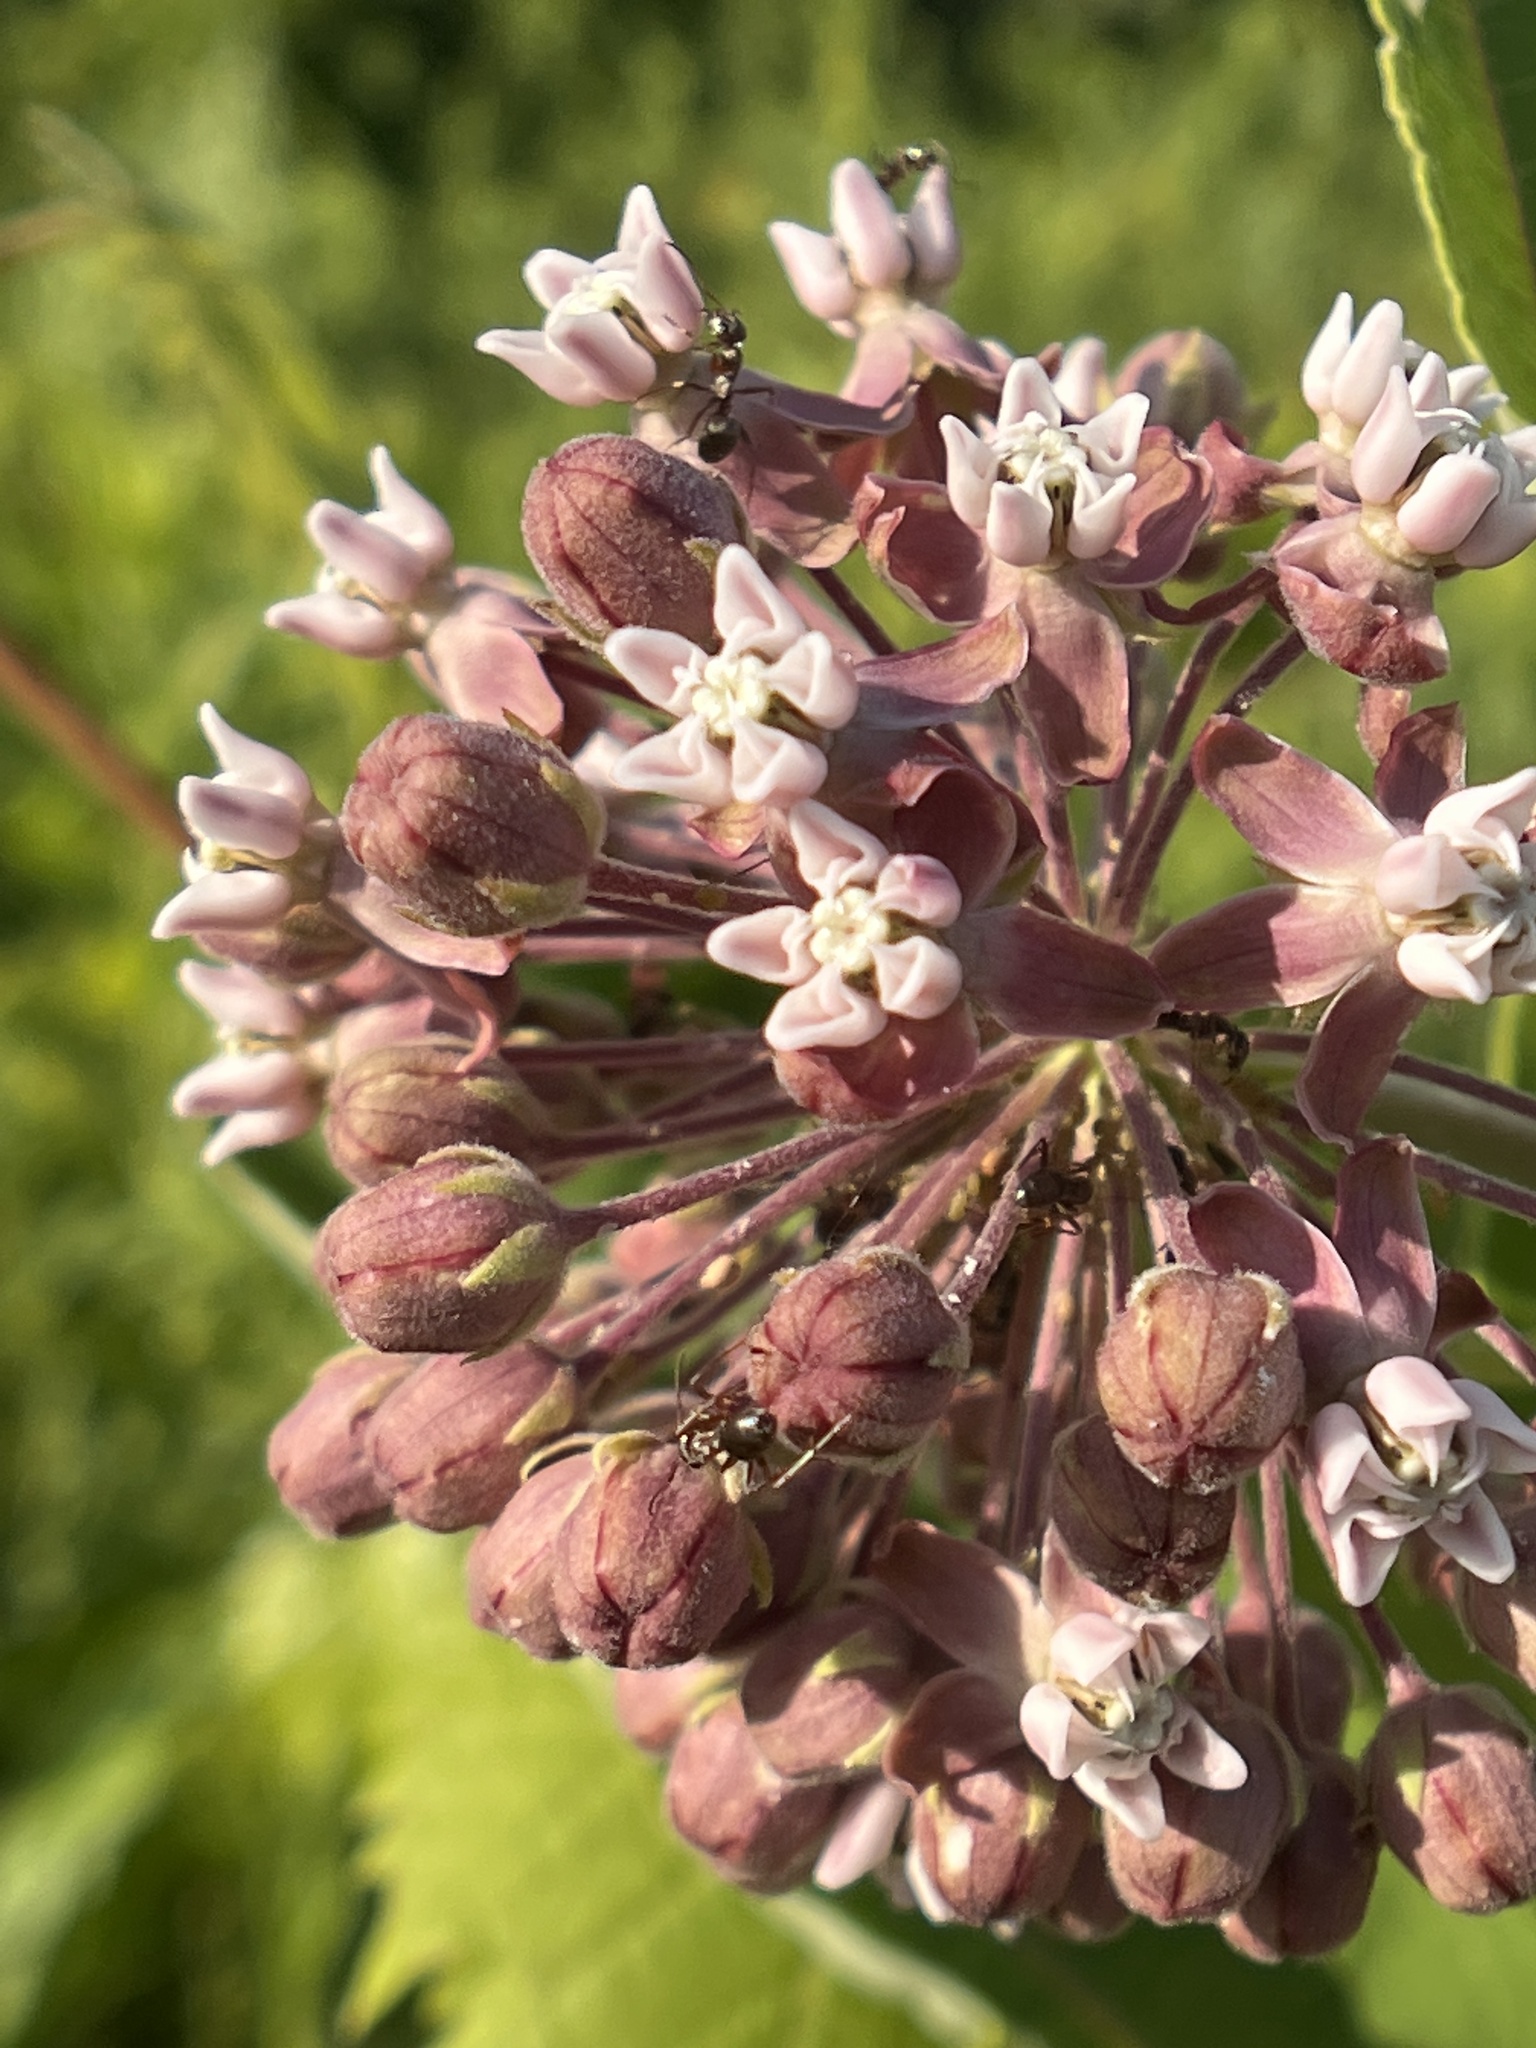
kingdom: Plantae
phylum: Tracheophyta
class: Magnoliopsida
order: Gentianales
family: Apocynaceae
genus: Asclepias
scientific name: Asclepias syriaca
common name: Common milkweed
